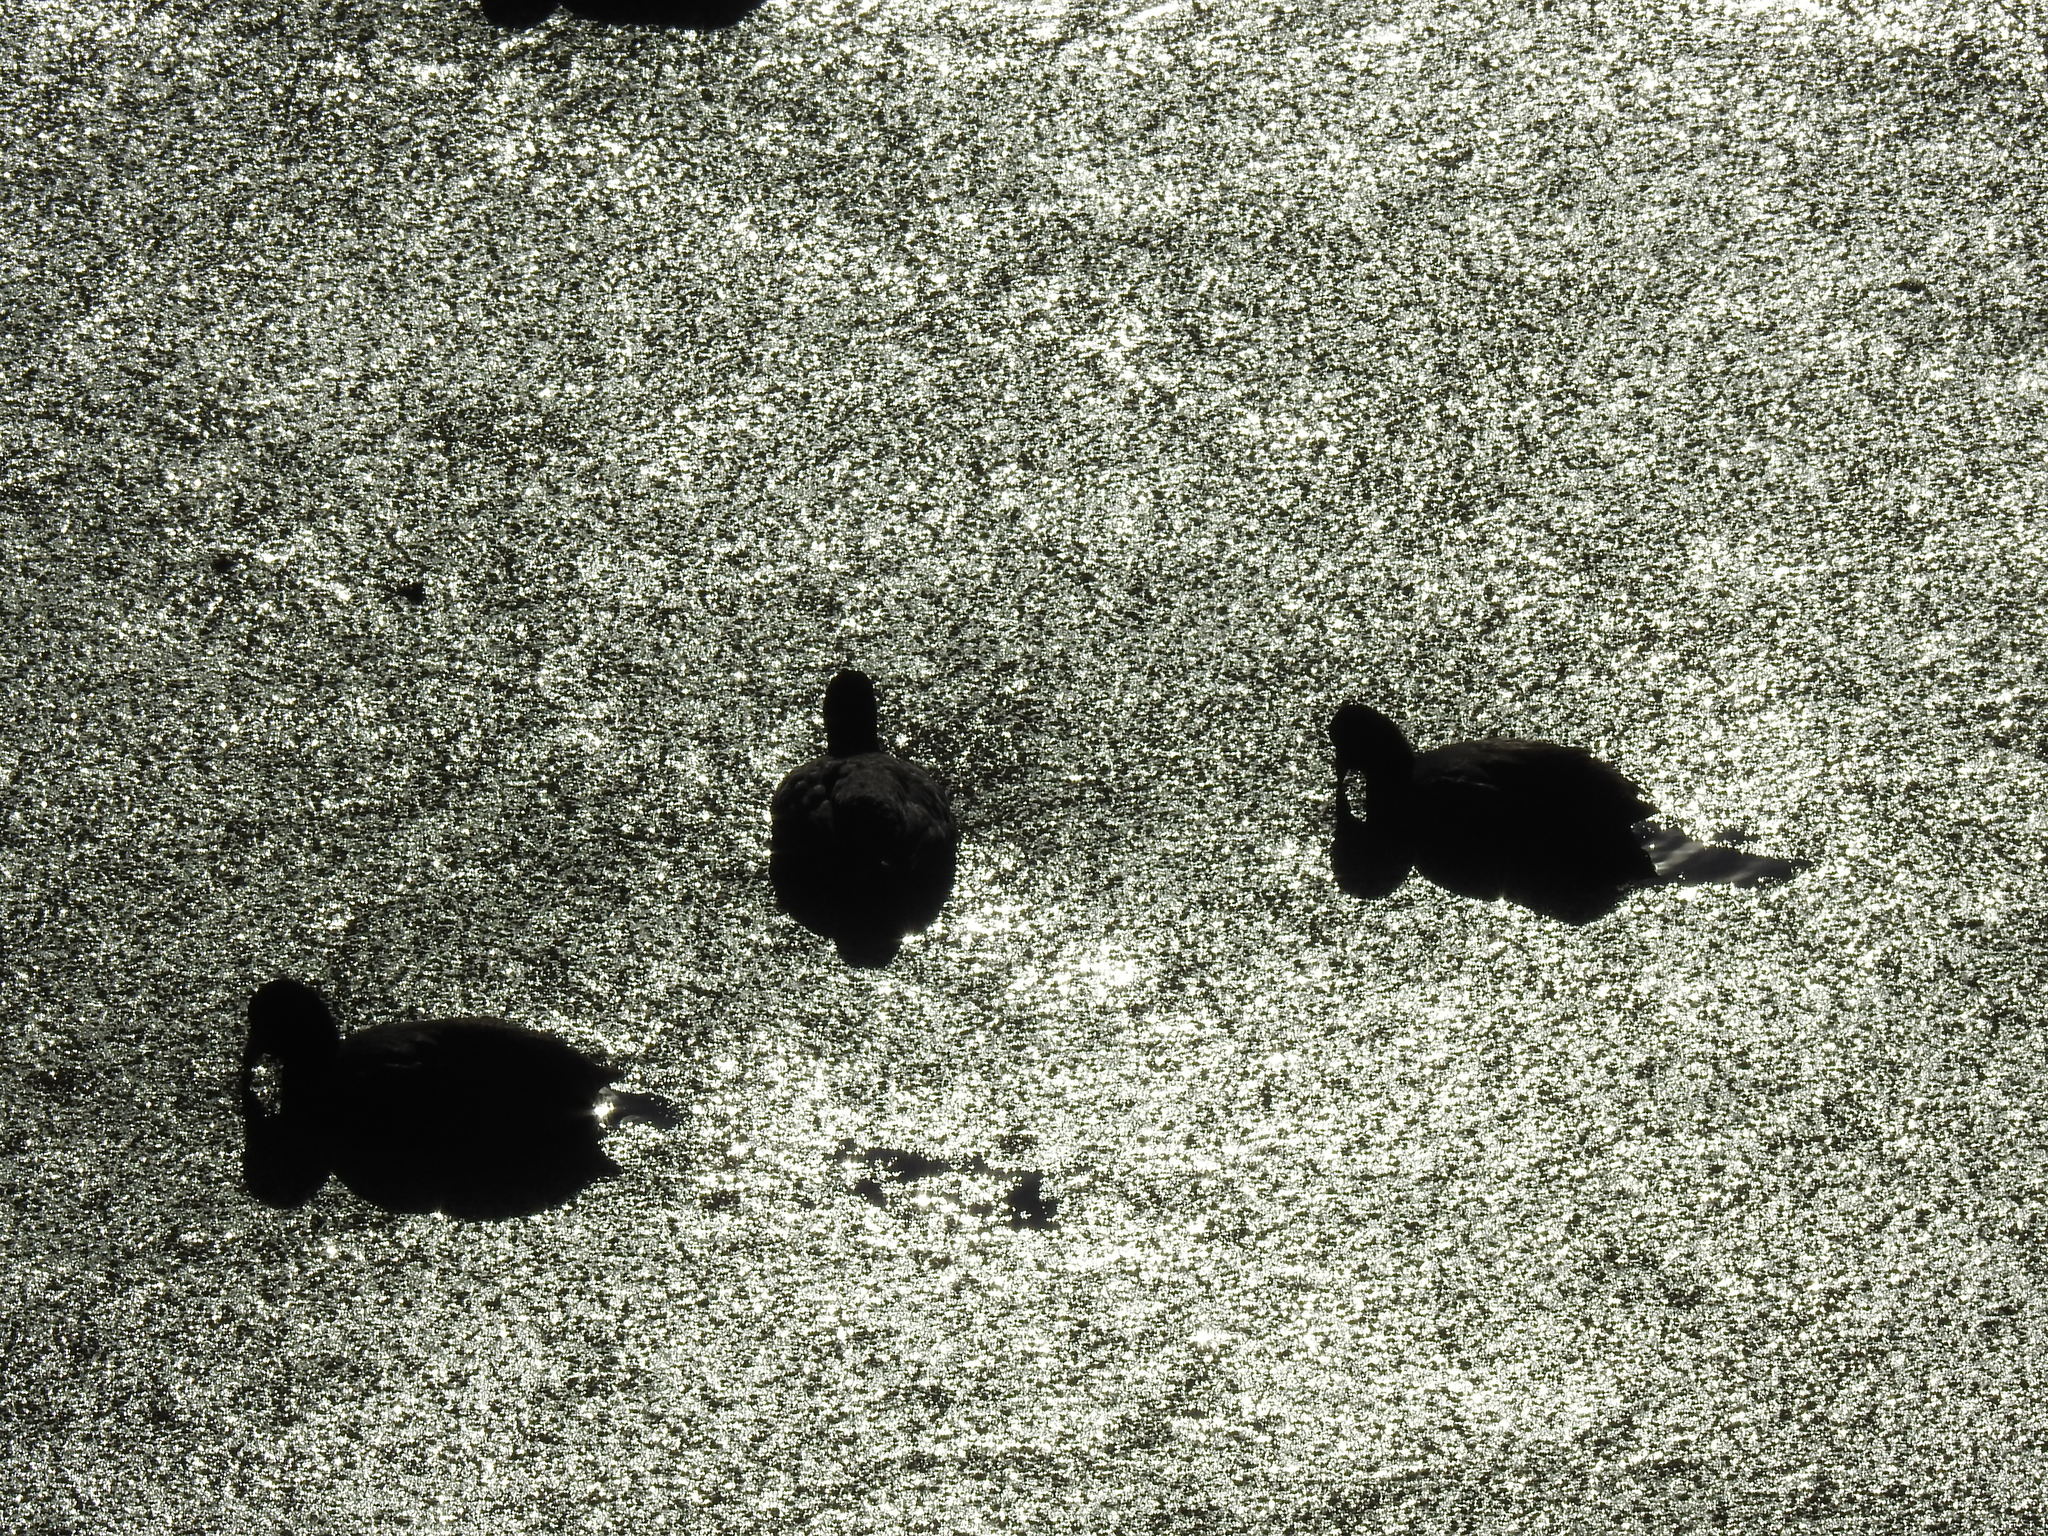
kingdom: Animalia
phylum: Chordata
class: Aves
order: Gruiformes
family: Rallidae
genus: Fulica
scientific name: Fulica americana
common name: American coot
